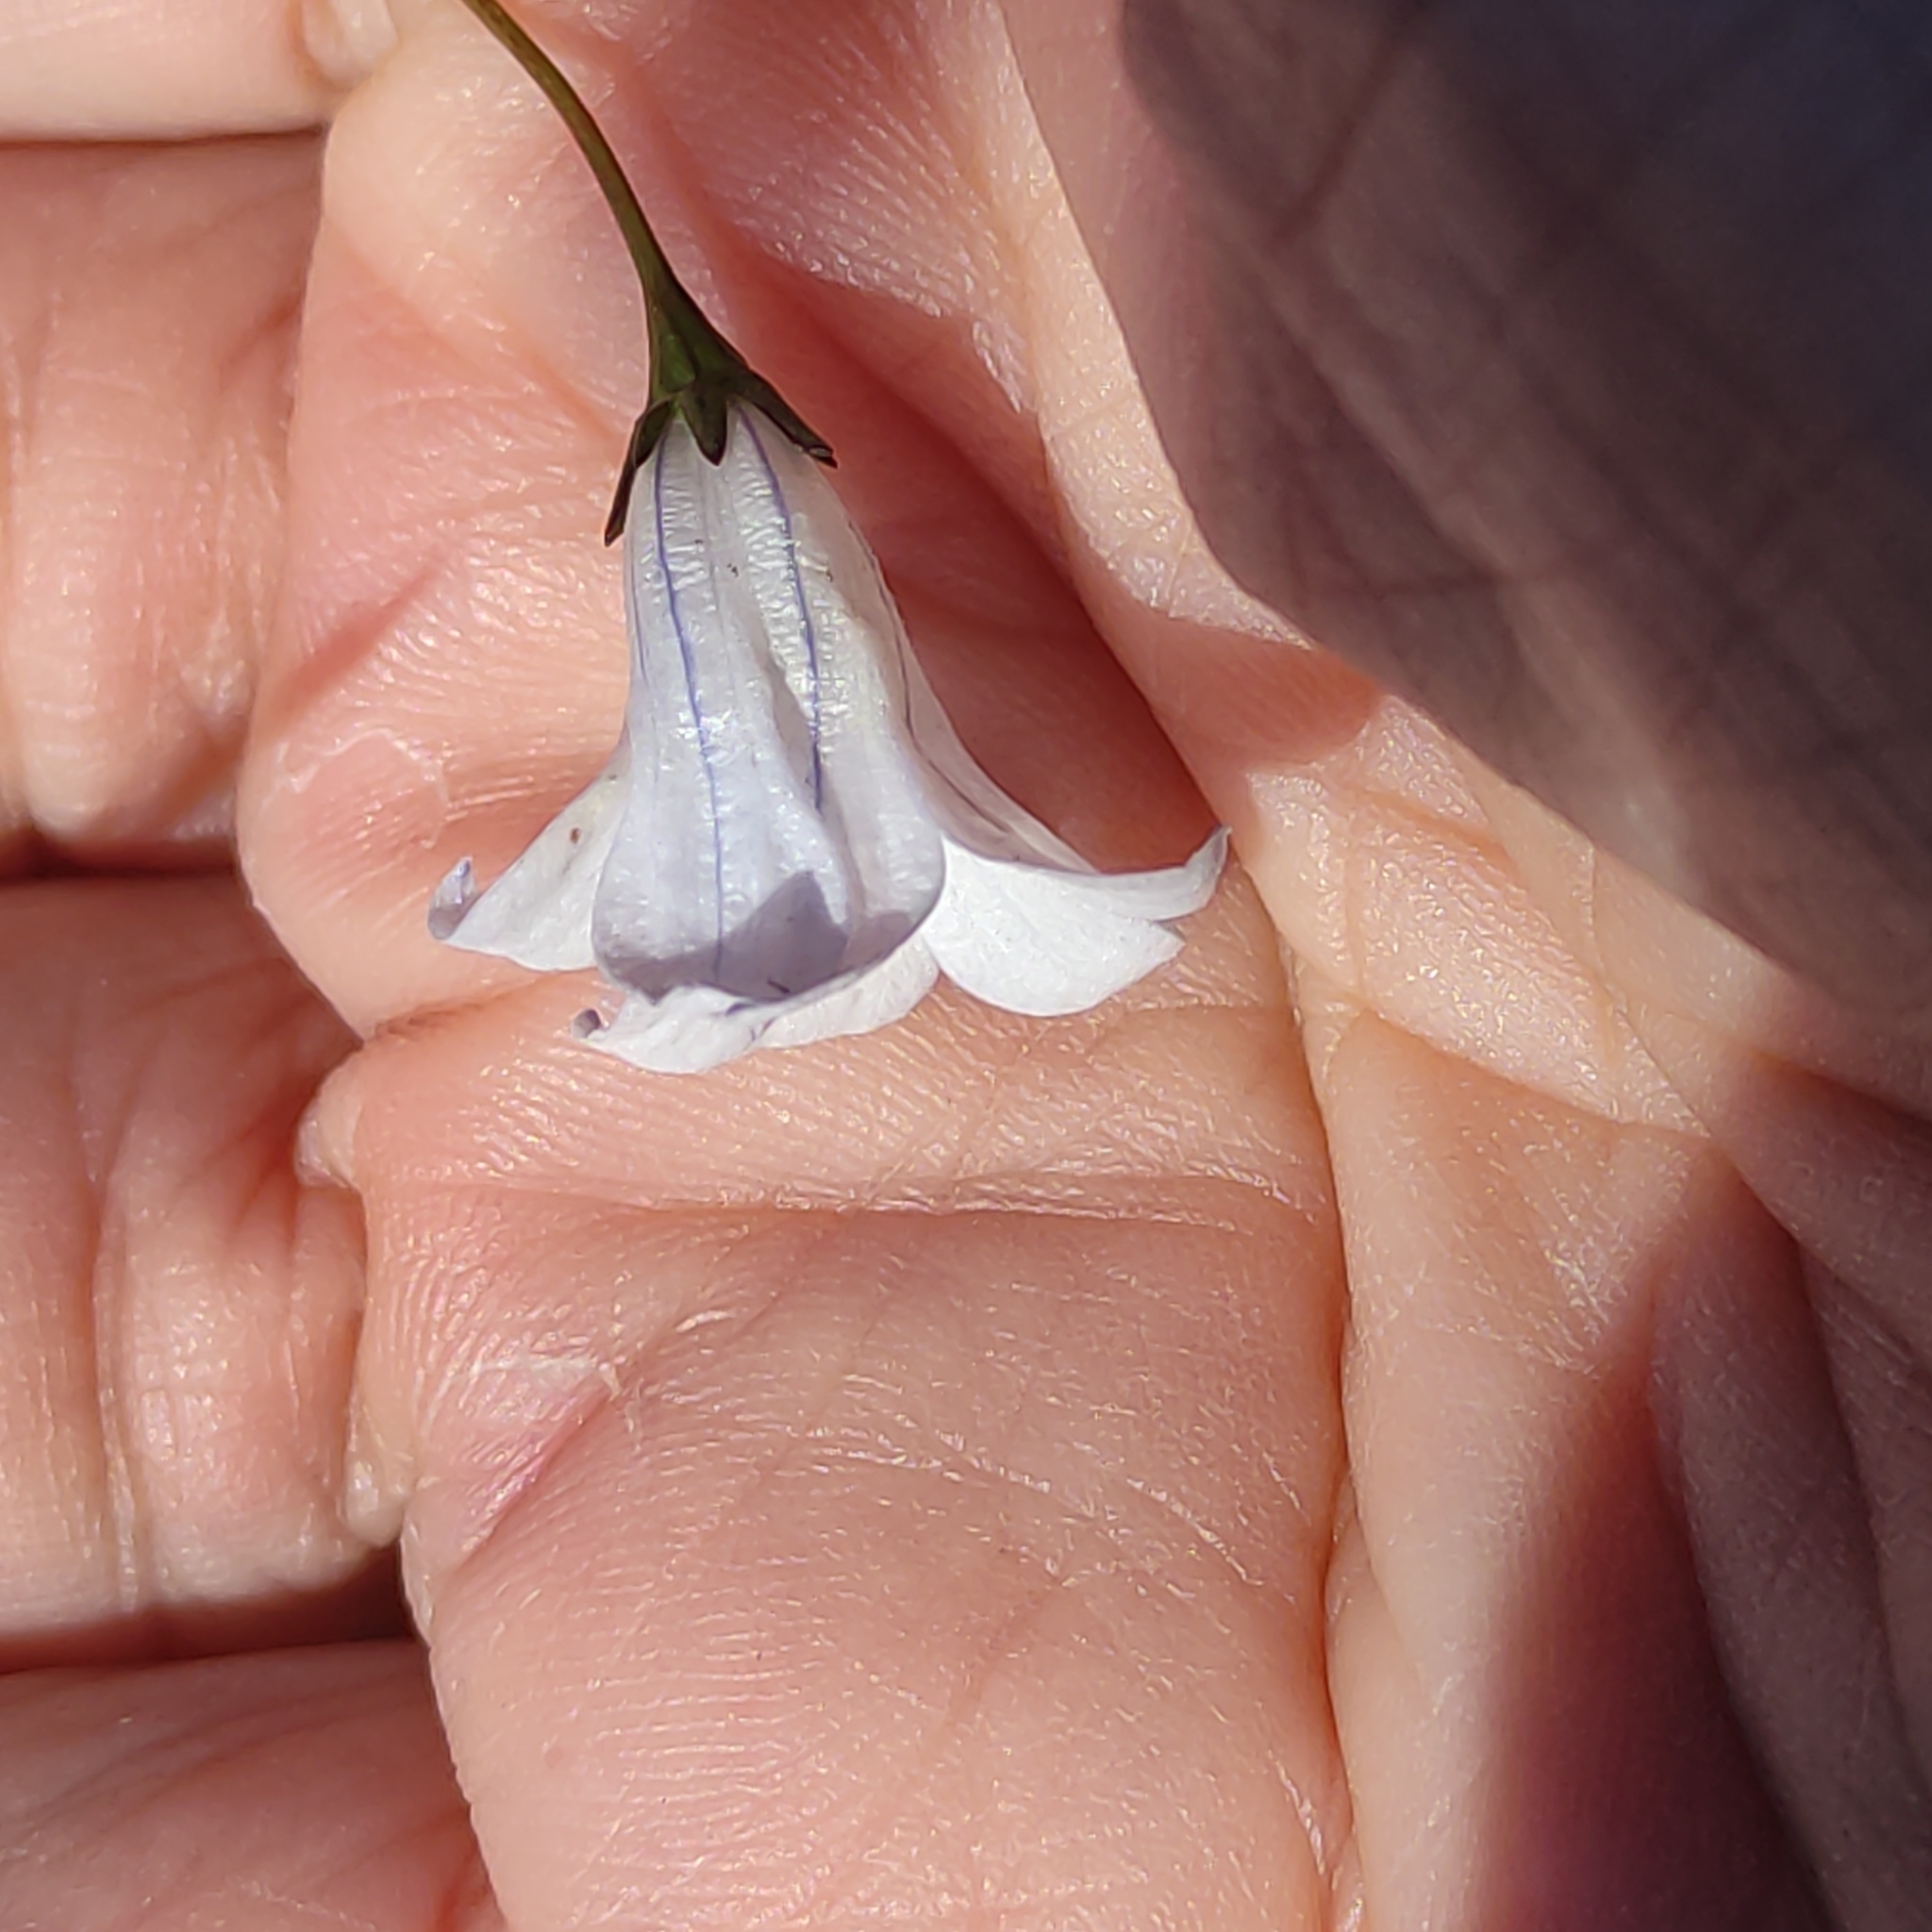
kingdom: Plantae
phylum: Tracheophyta
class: Magnoliopsida
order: Asterales
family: Campanulaceae
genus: Wahlenbergia
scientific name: Wahlenbergia albomarginata
